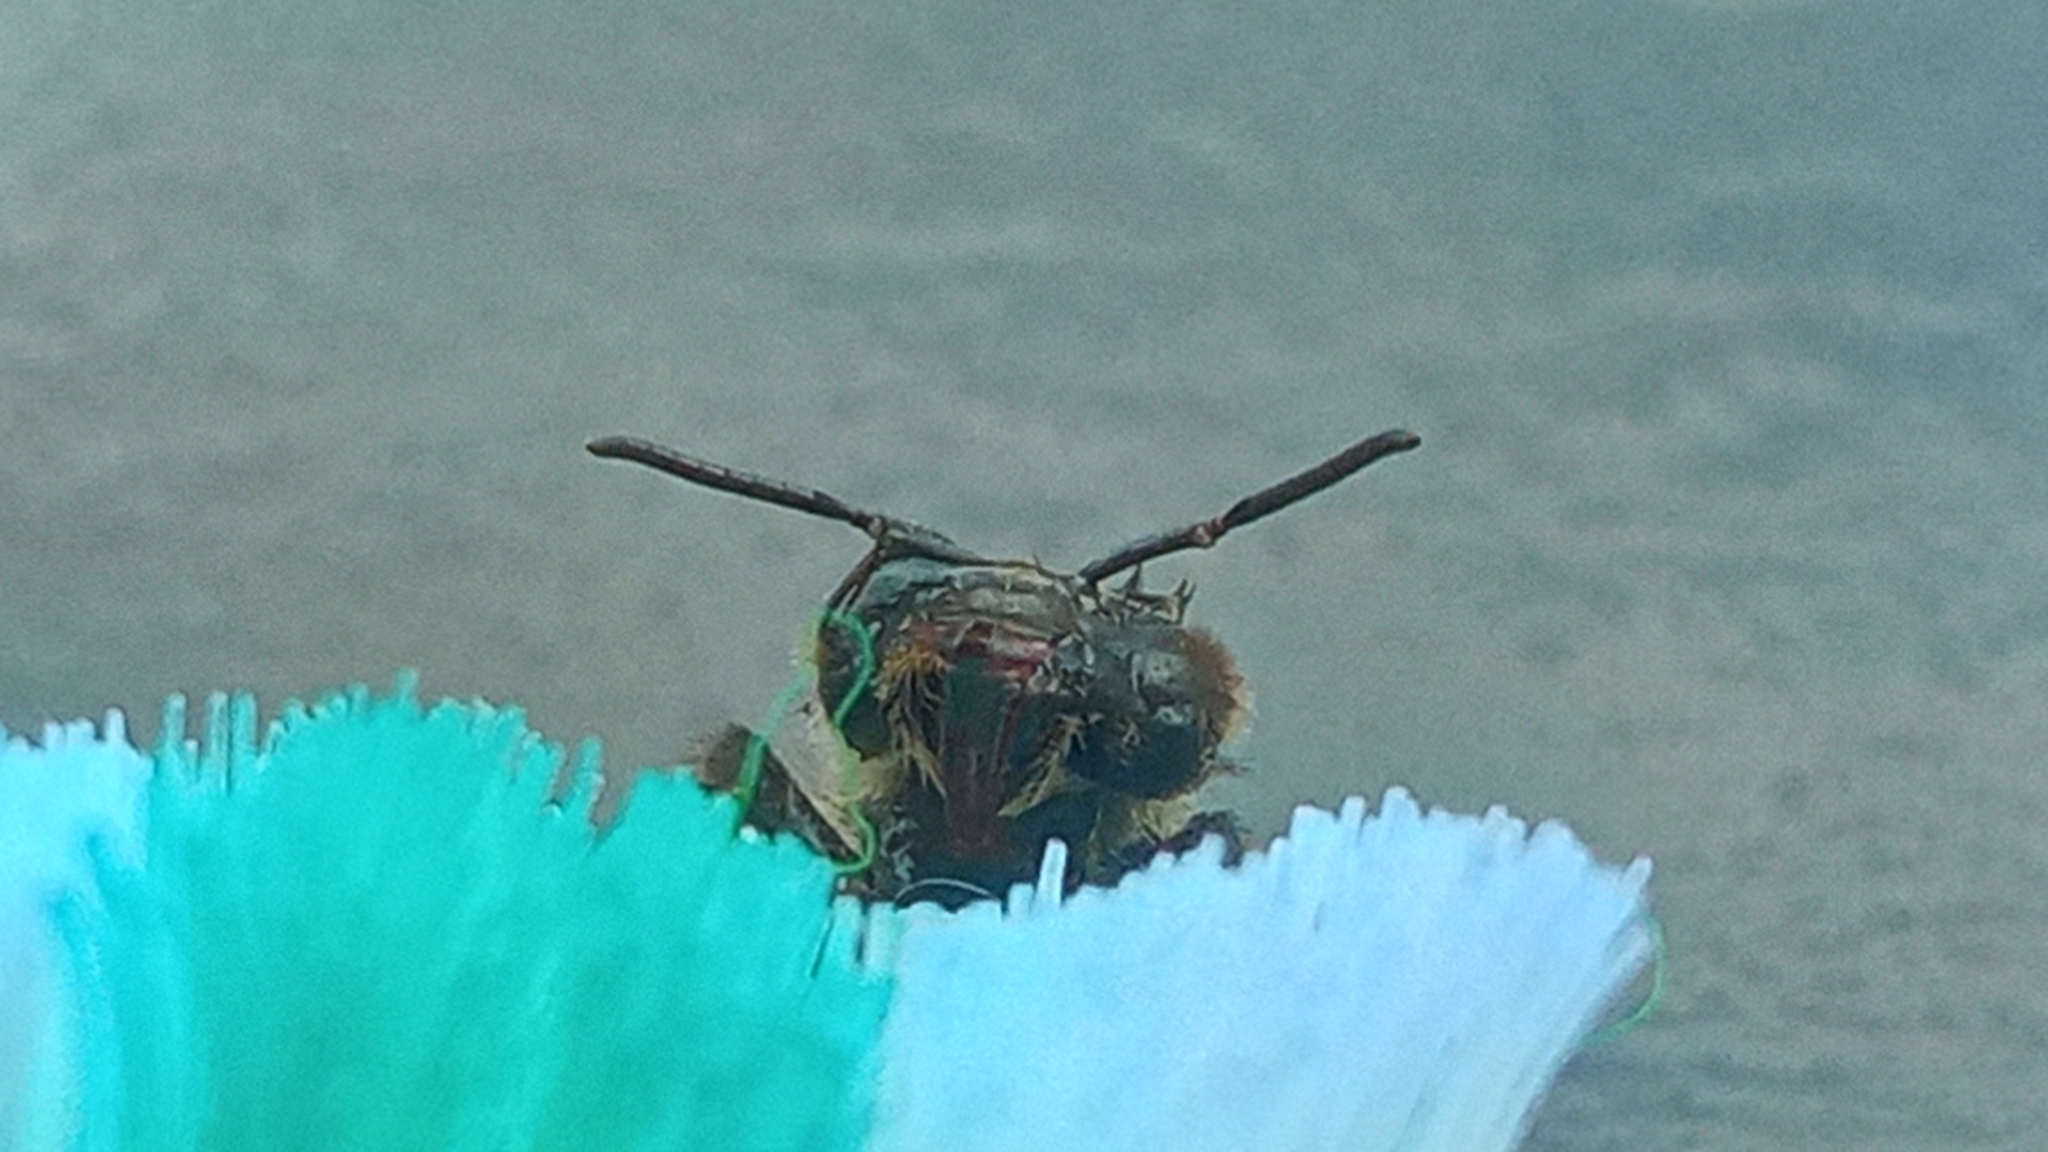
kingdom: Animalia
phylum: Arthropoda
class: Insecta
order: Hymenoptera
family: Apidae
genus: Apis
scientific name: Apis mellifera
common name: Honey bee
